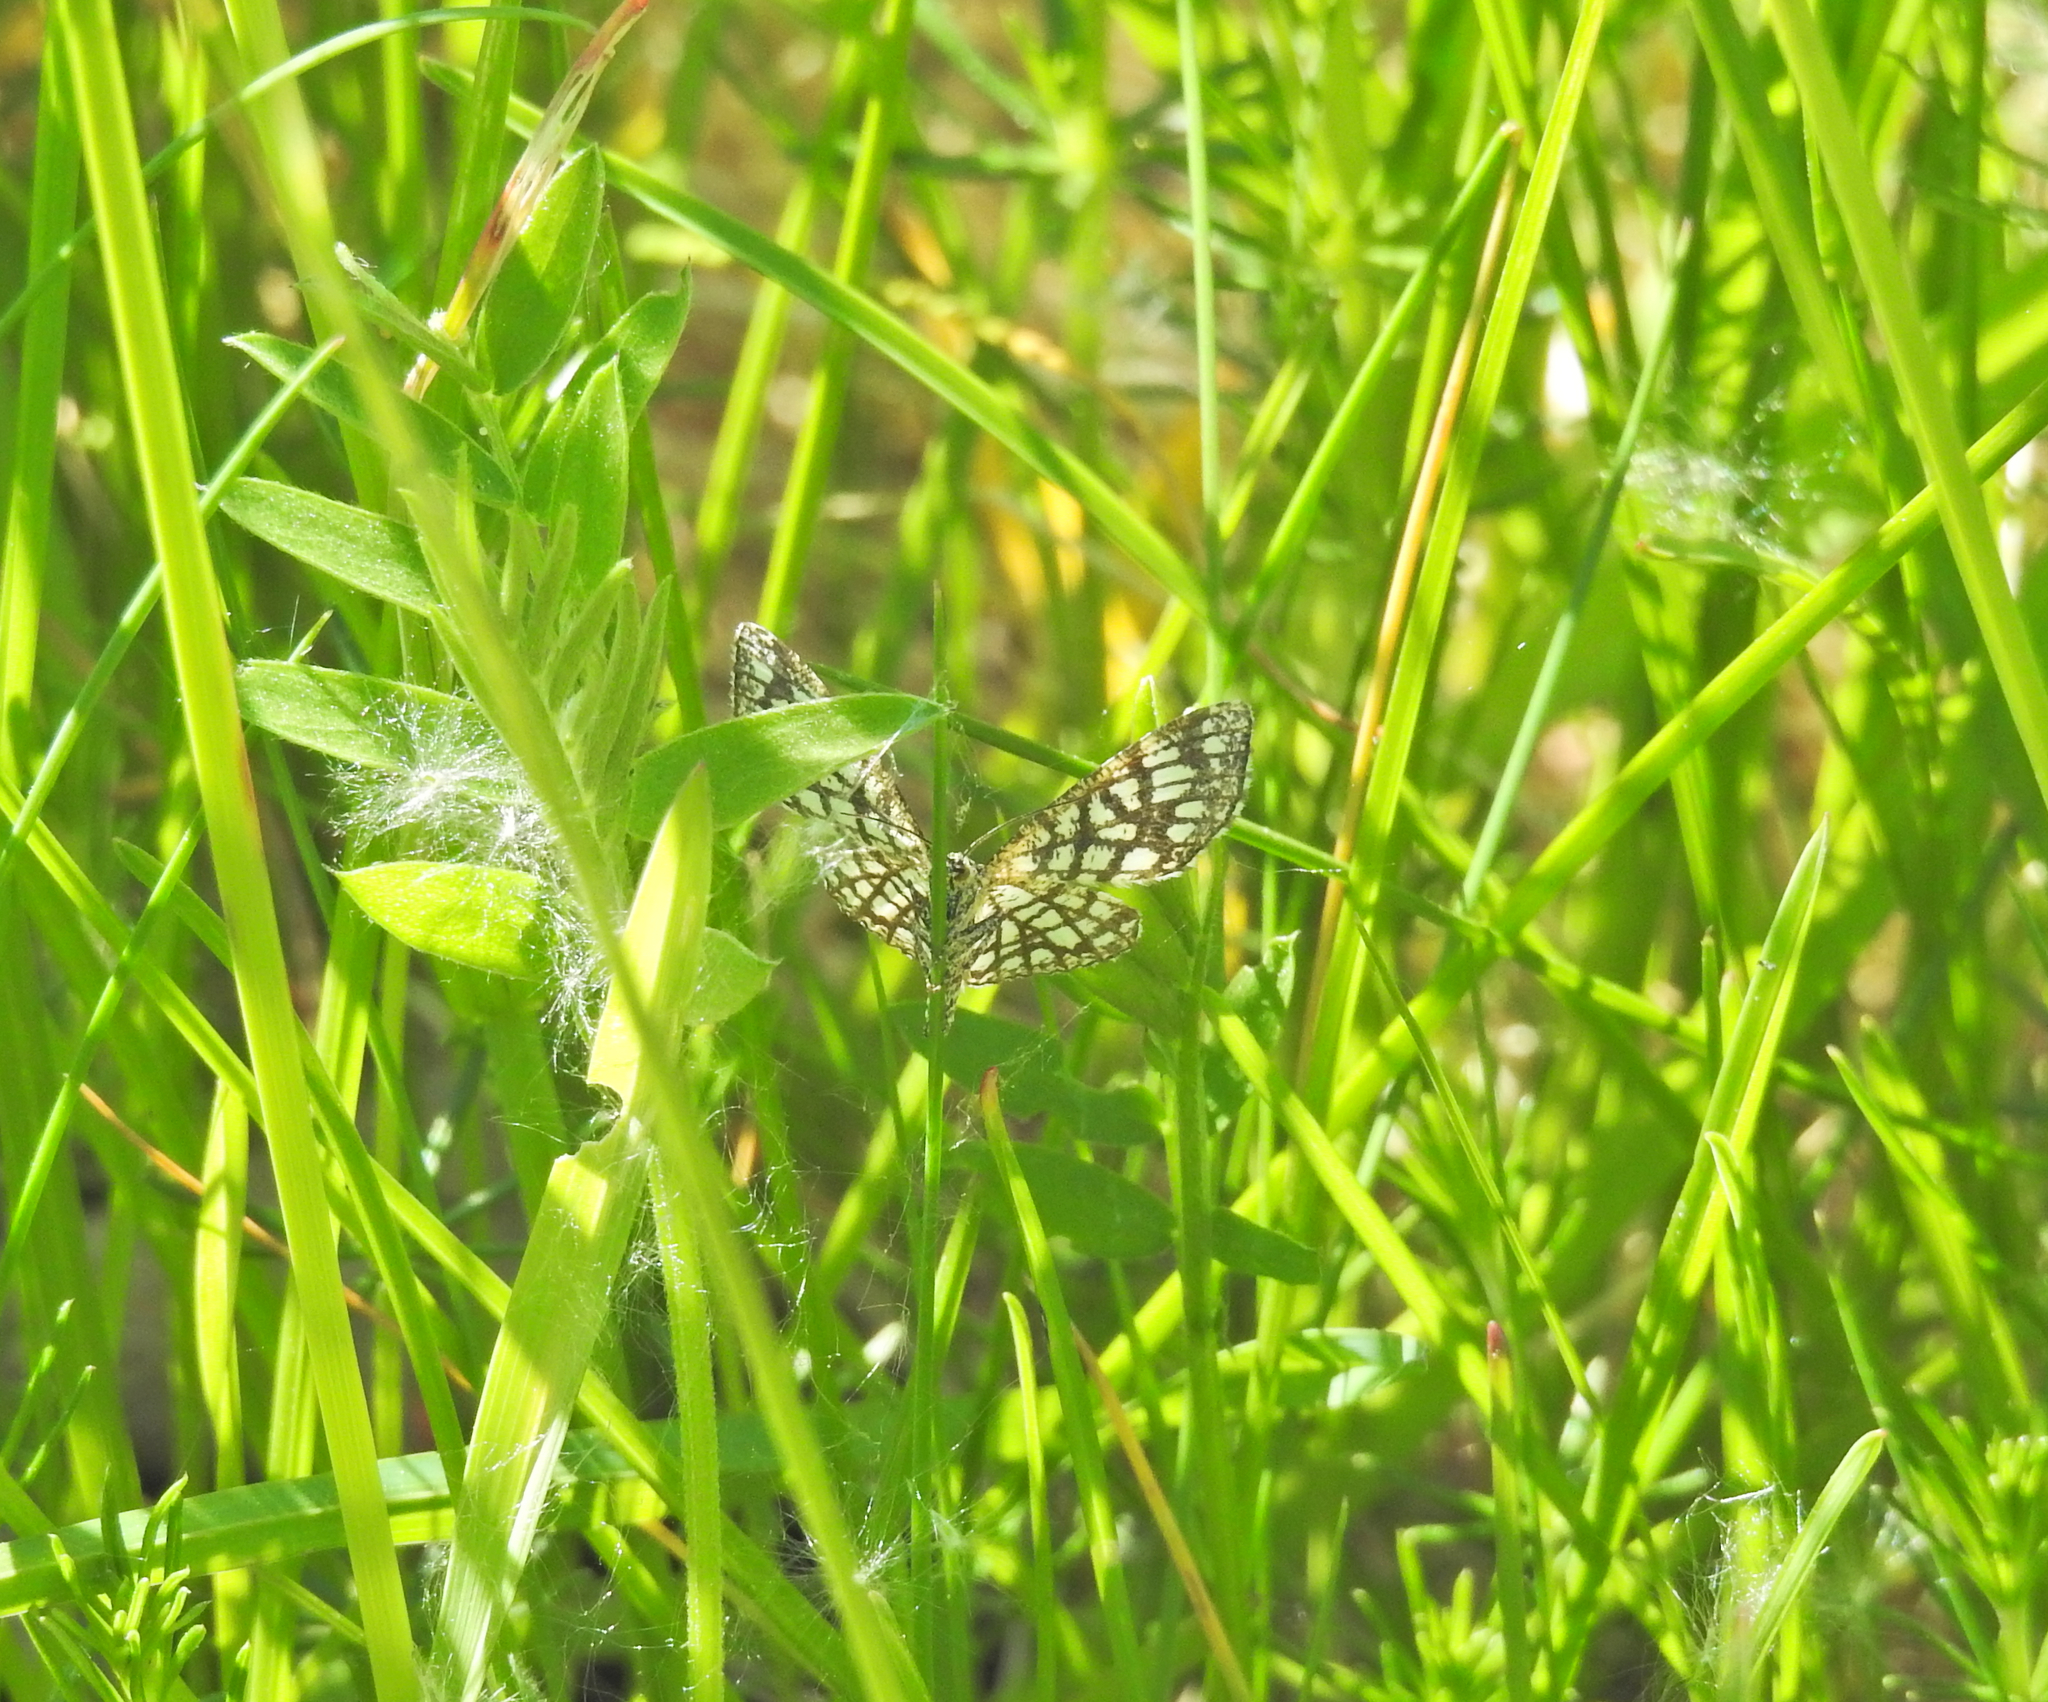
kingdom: Animalia
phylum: Arthropoda
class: Insecta
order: Lepidoptera
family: Geometridae
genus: Chiasmia
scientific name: Chiasmia clathrata
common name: Latticed heath
